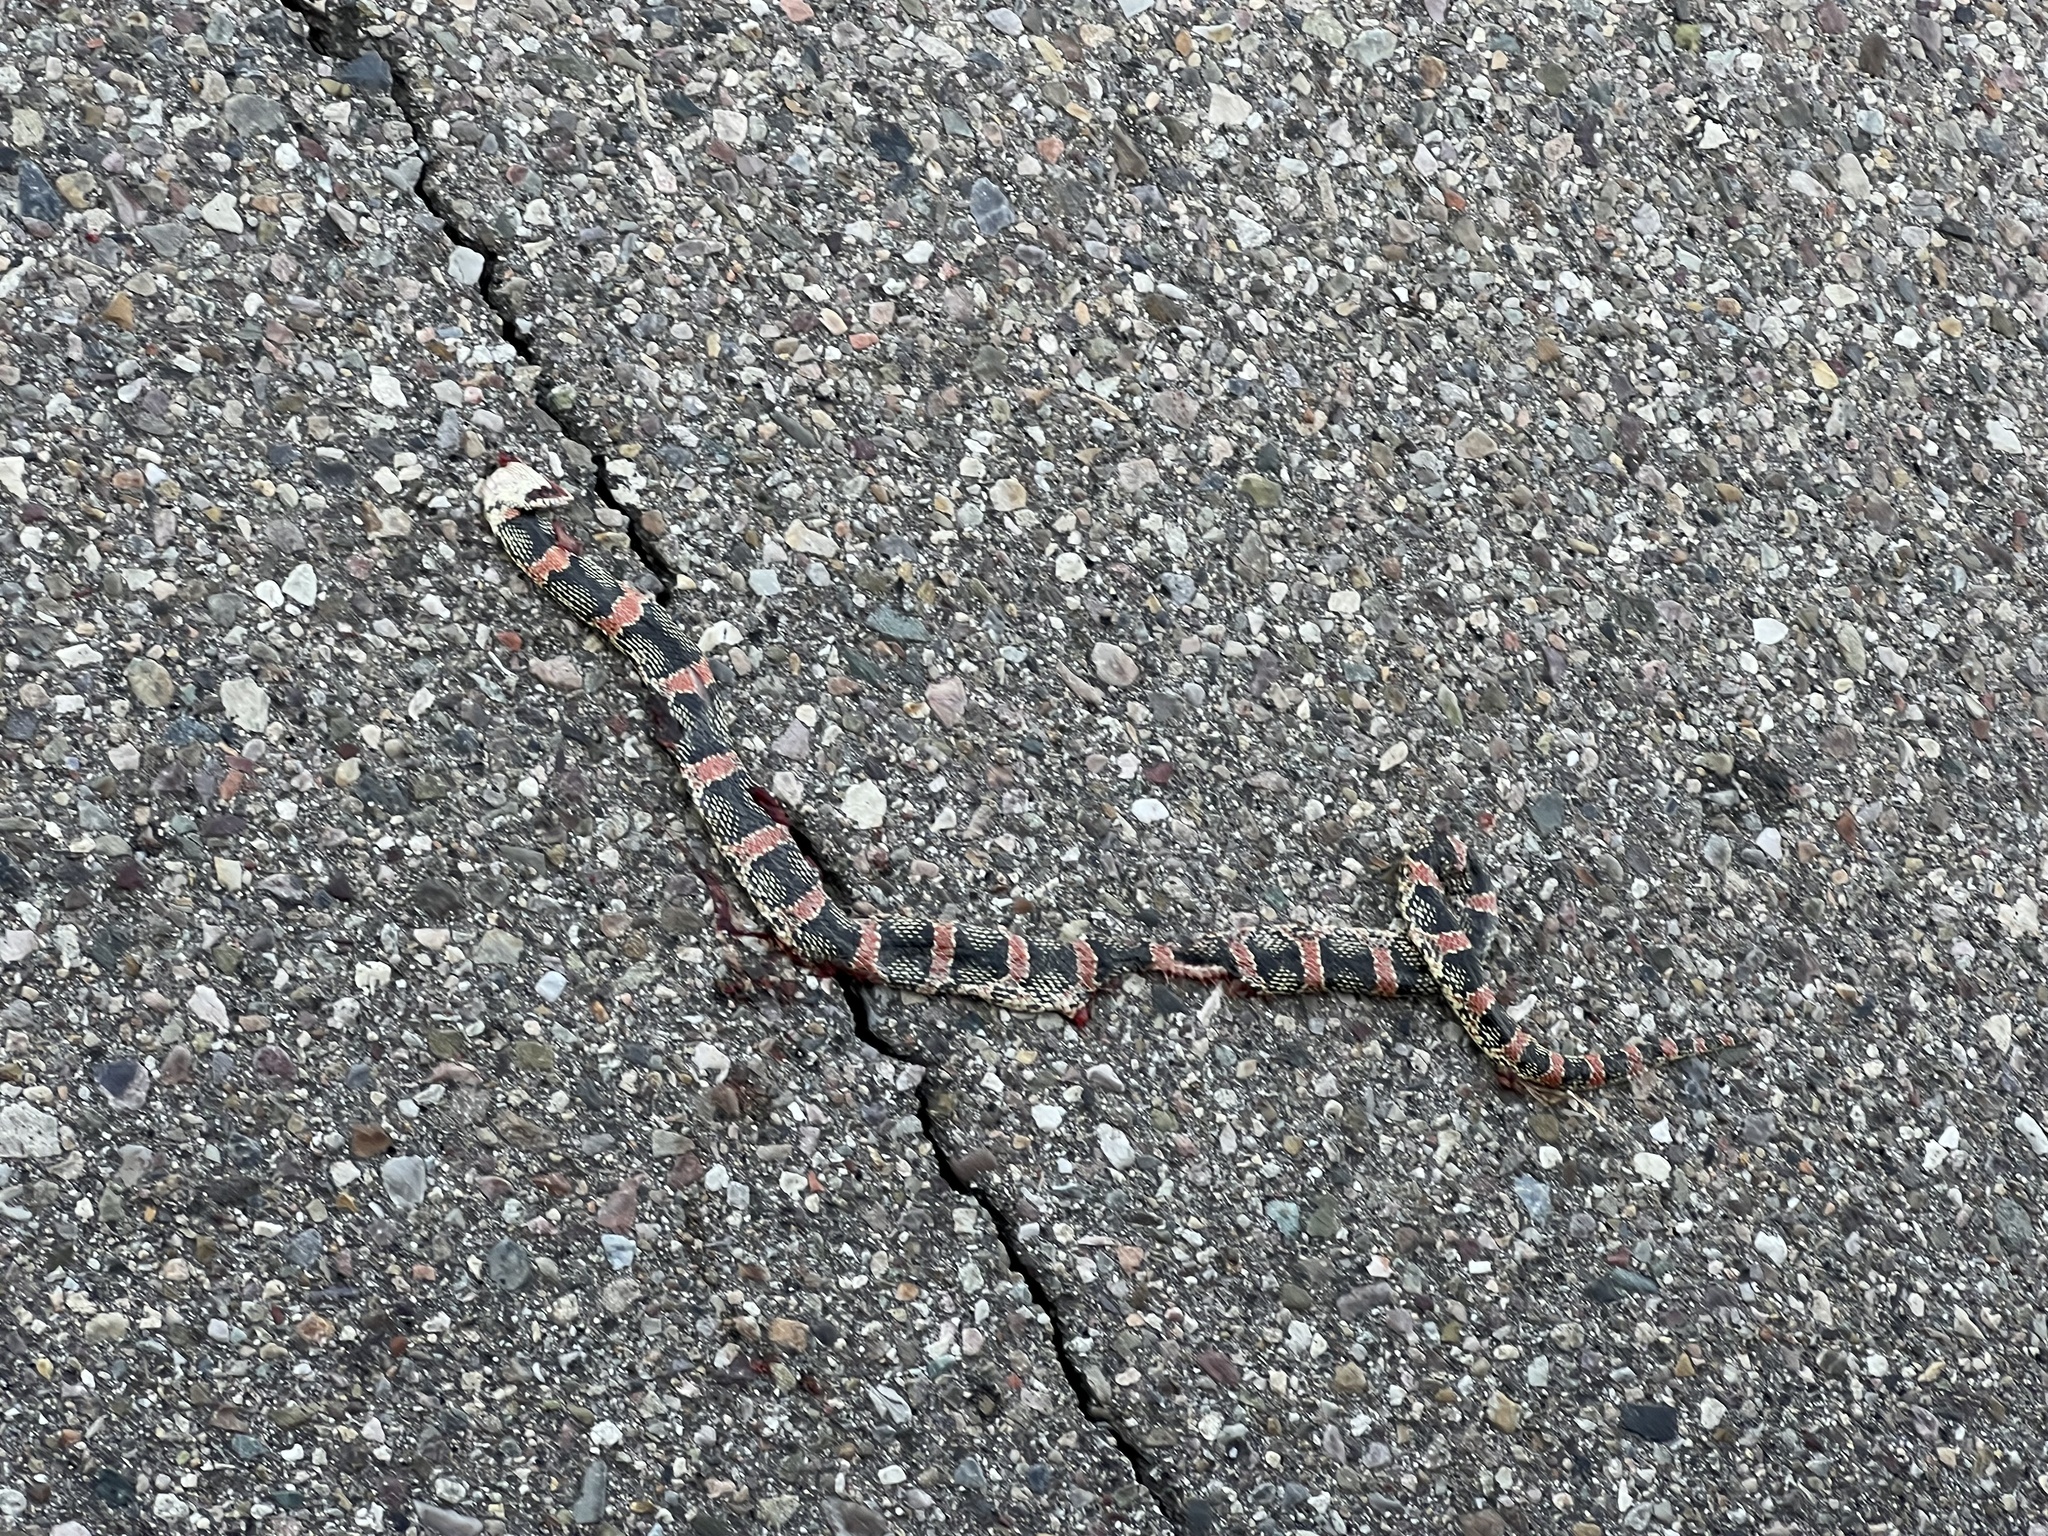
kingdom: Animalia
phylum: Chordata
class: Squamata
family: Colubridae
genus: Rhinocheilus
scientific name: Rhinocheilus lecontei
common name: Longnose snake
